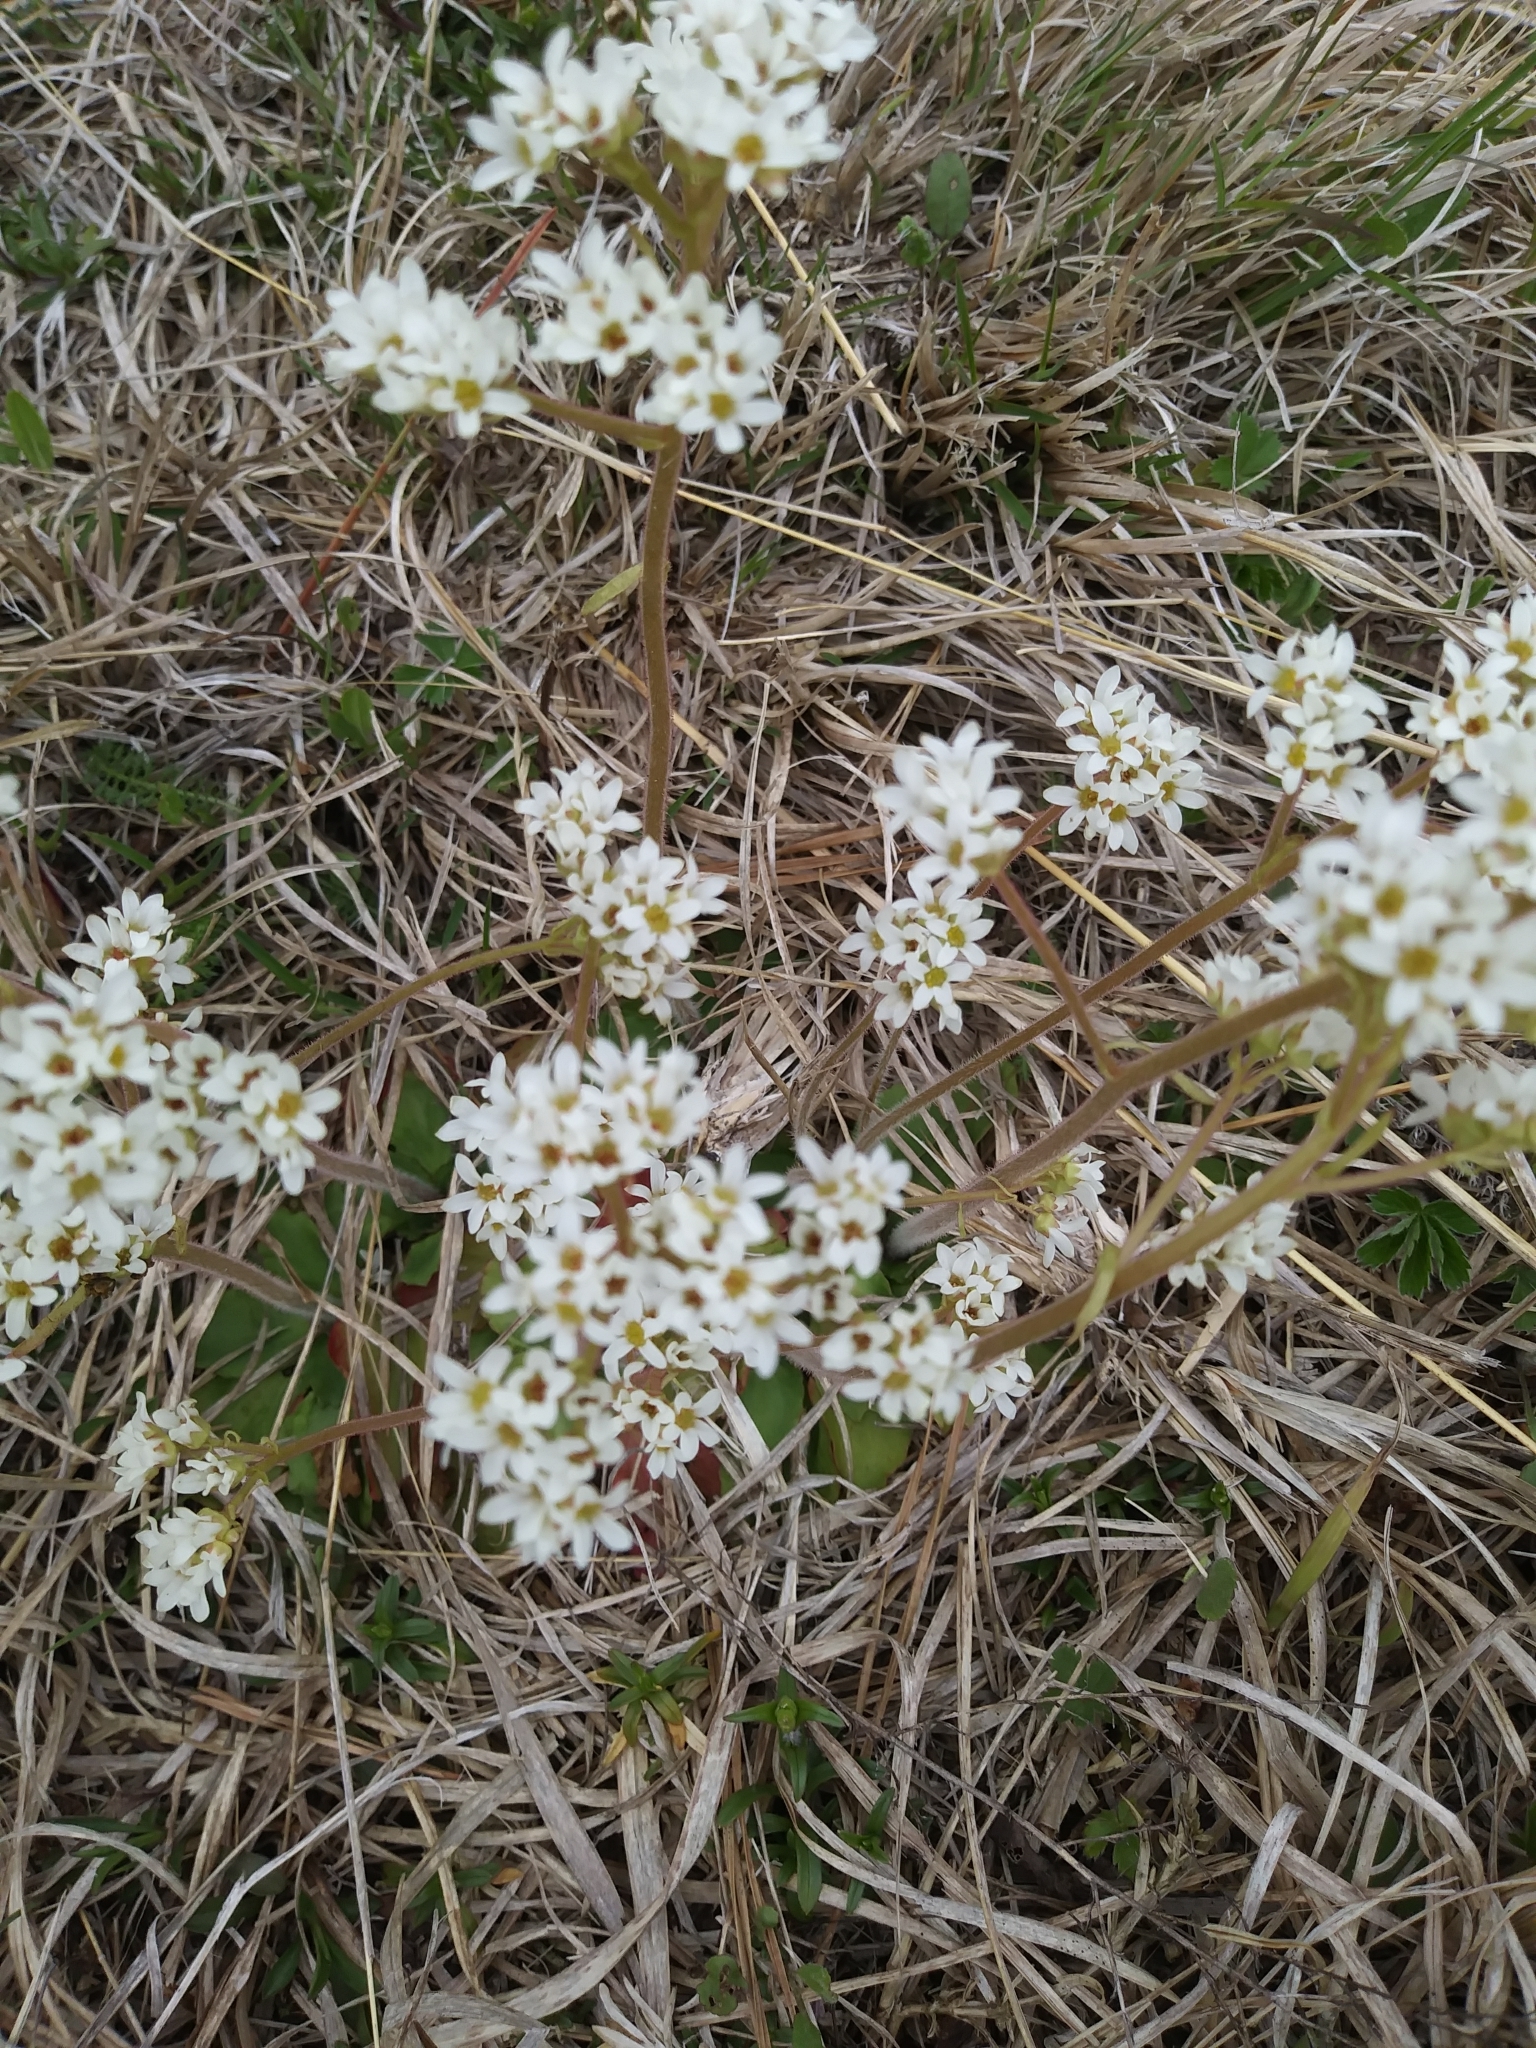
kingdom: Plantae
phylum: Tracheophyta
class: Magnoliopsida
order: Saxifragales
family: Saxifragaceae
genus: Micranthes
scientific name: Micranthes virginiensis
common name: Early saxifrage
